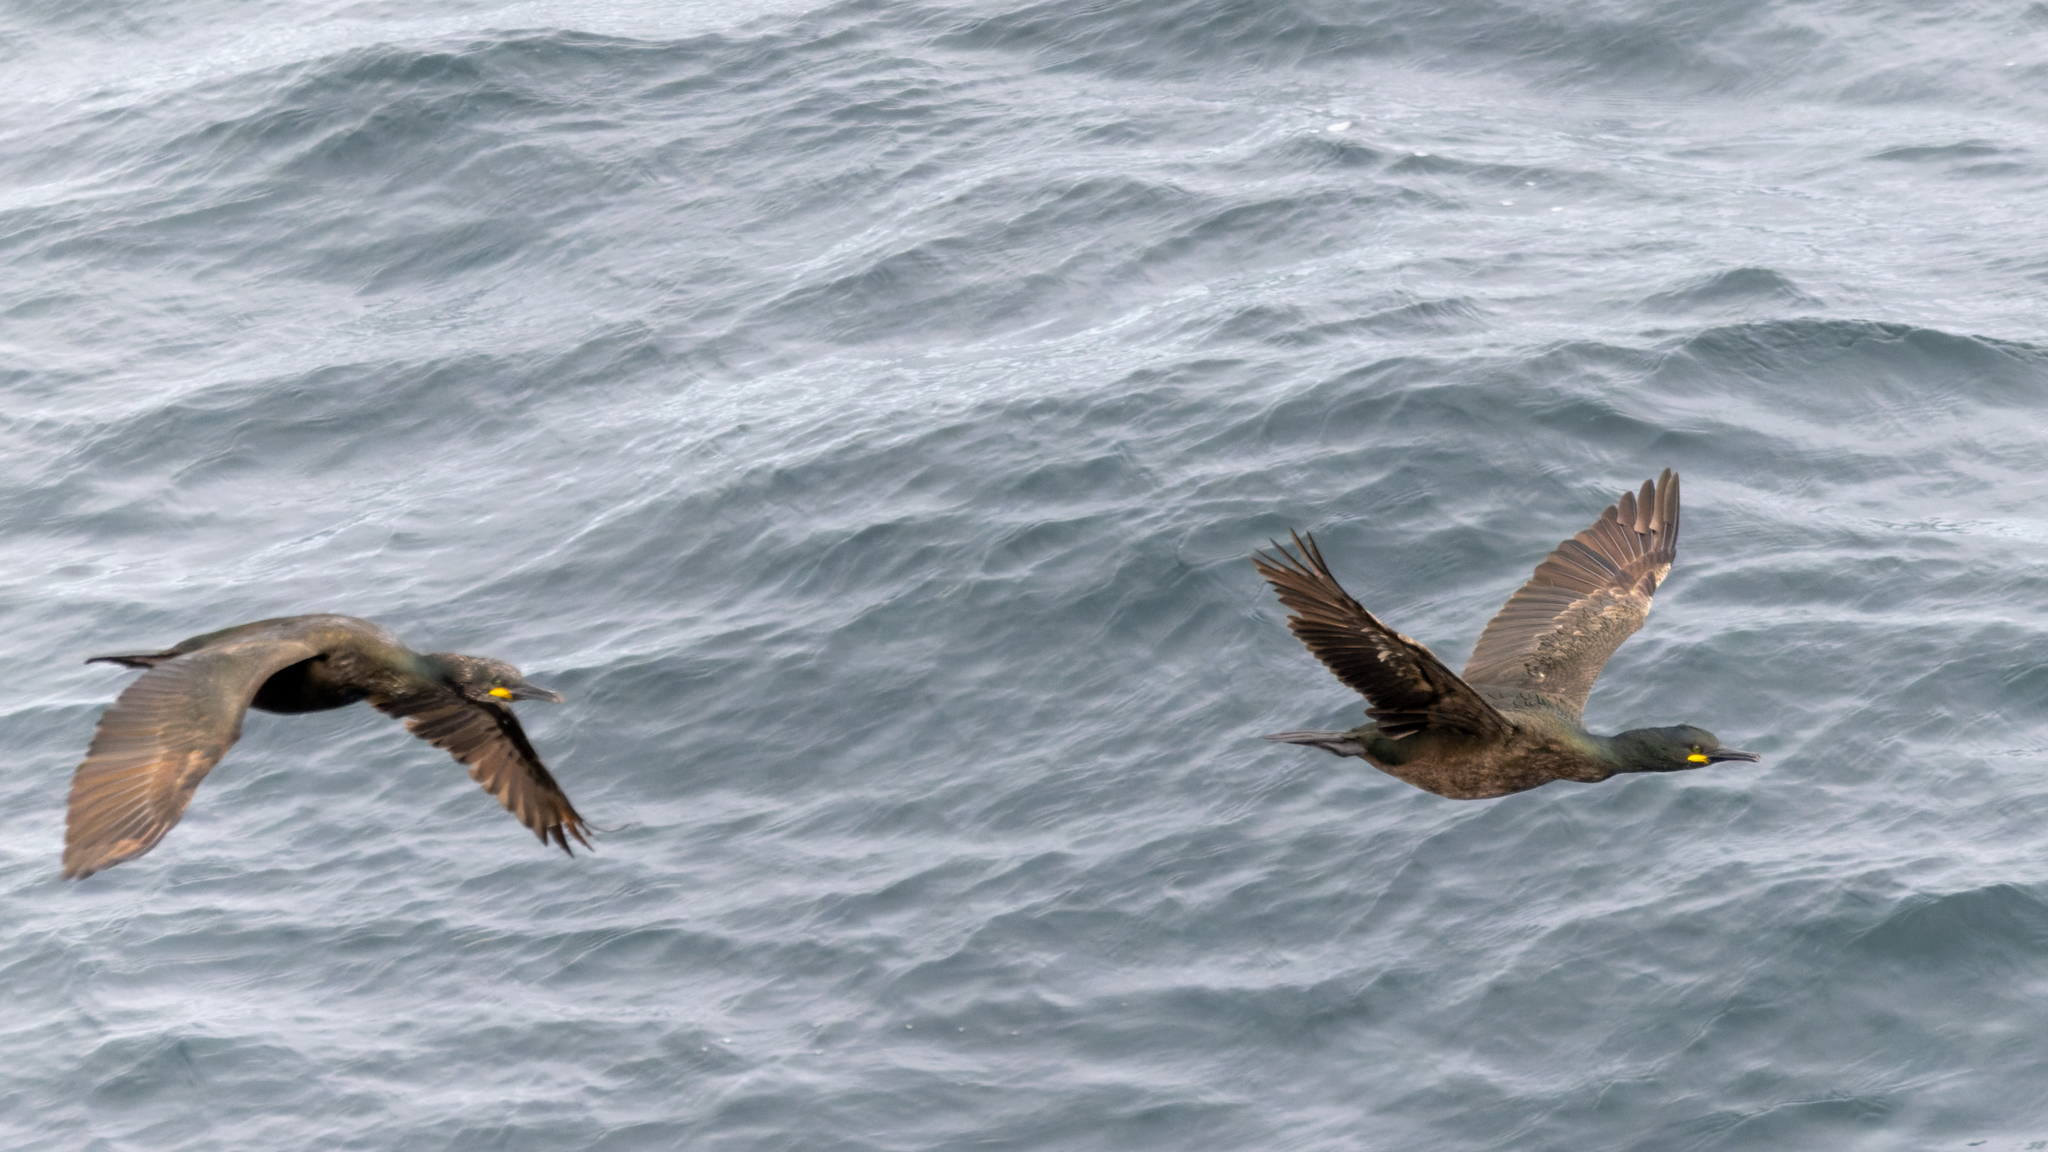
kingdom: Animalia
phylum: Chordata
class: Aves
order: Suliformes
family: Phalacrocoracidae
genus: Phalacrocorax
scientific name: Phalacrocorax aristotelis
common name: European shag
